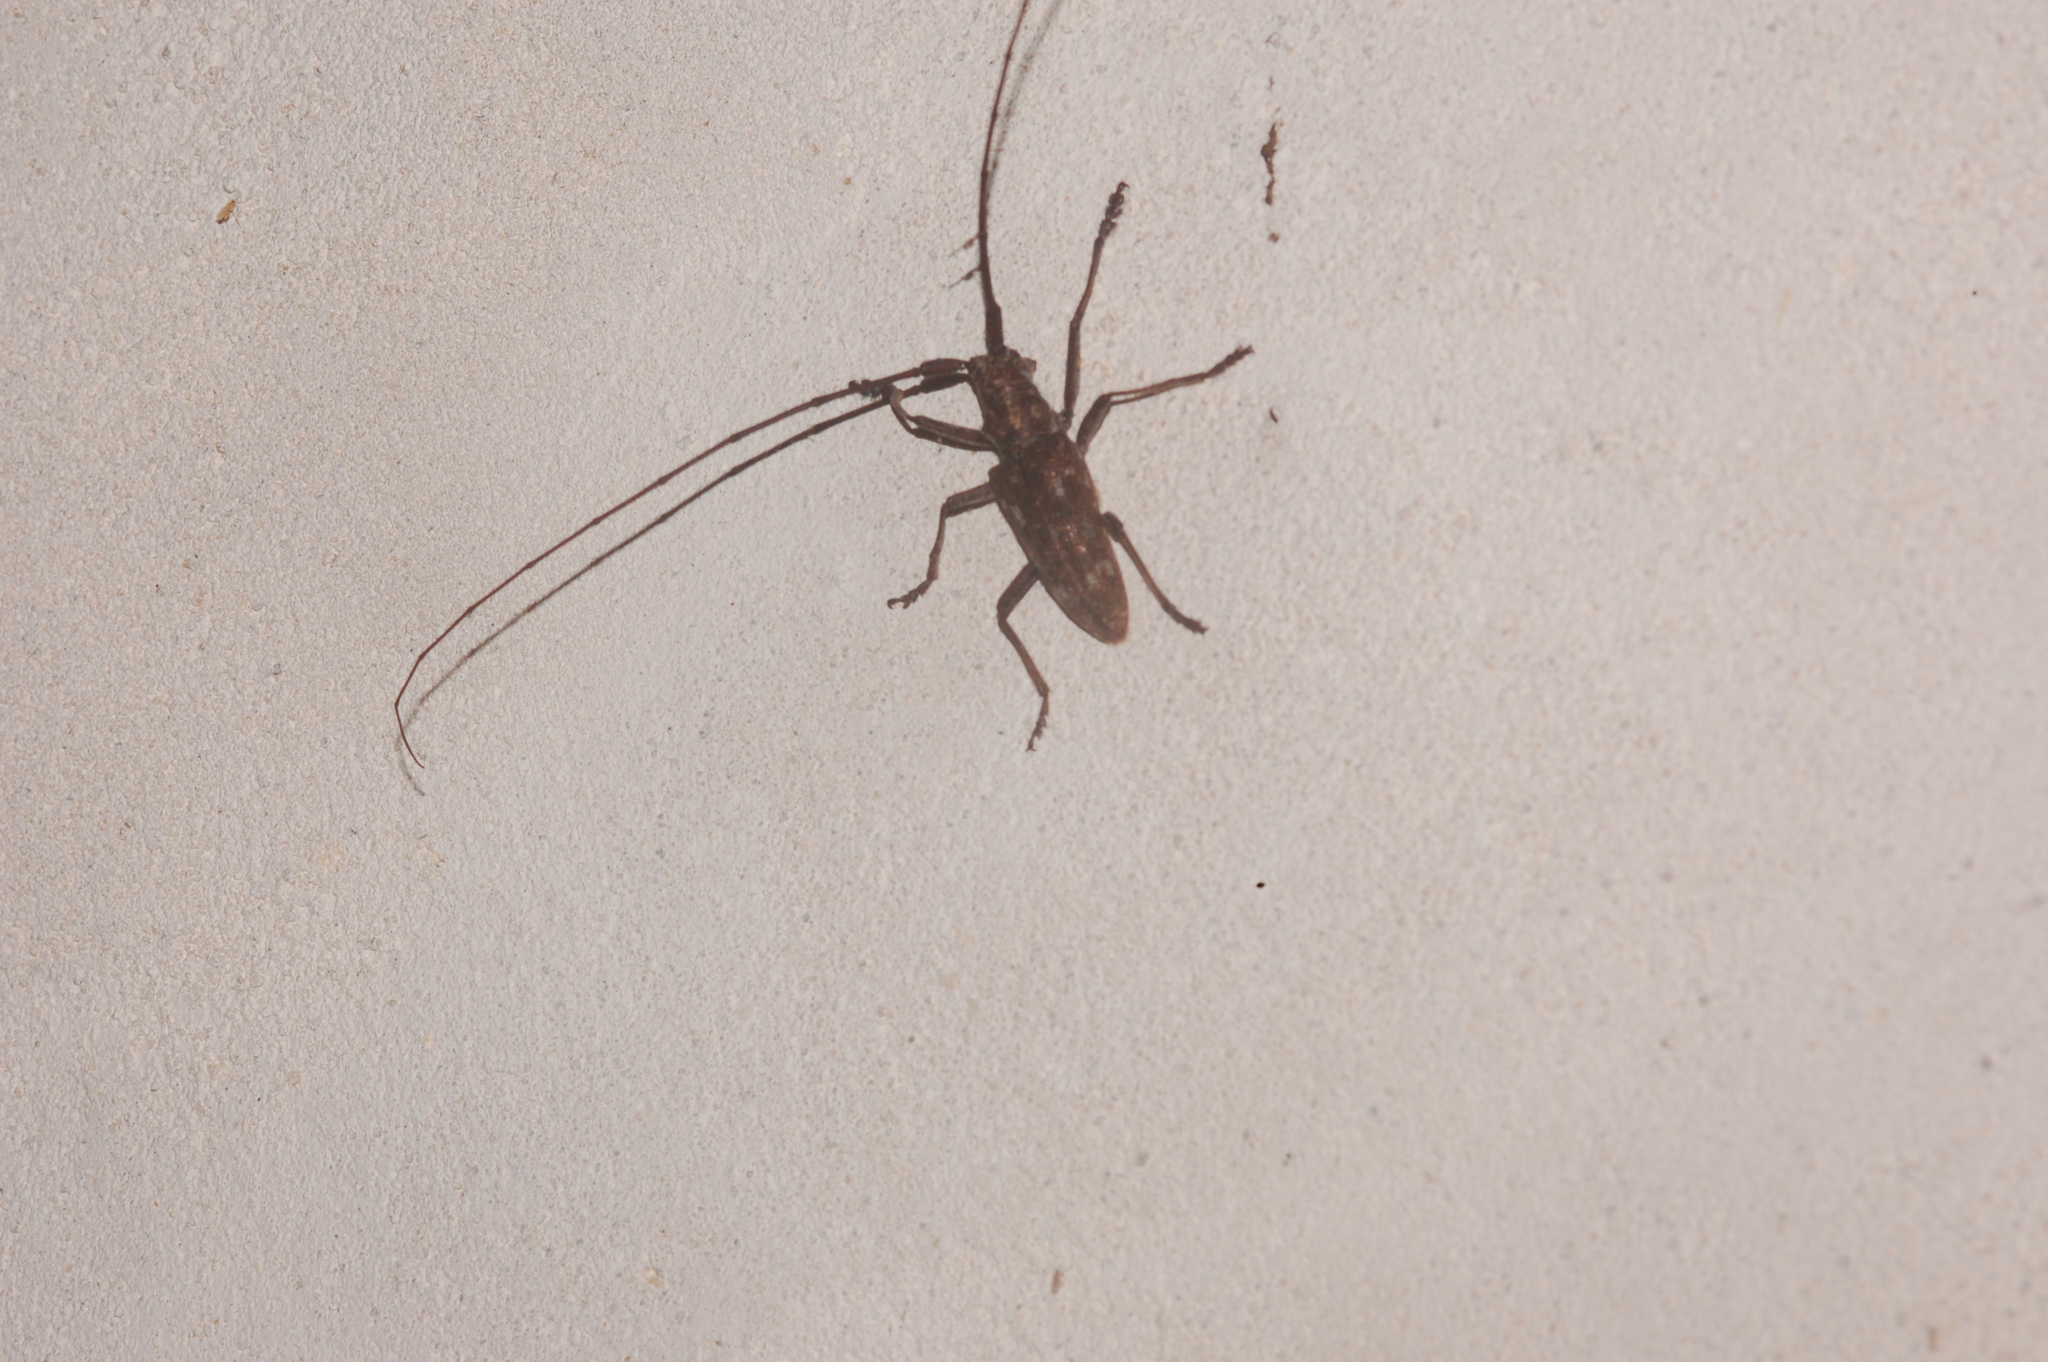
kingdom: Animalia
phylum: Arthropoda
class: Insecta
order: Coleoptera
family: Cerambycidae
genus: Monochamus
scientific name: Monochamus carolinensis
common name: Carolina pine sawyer
